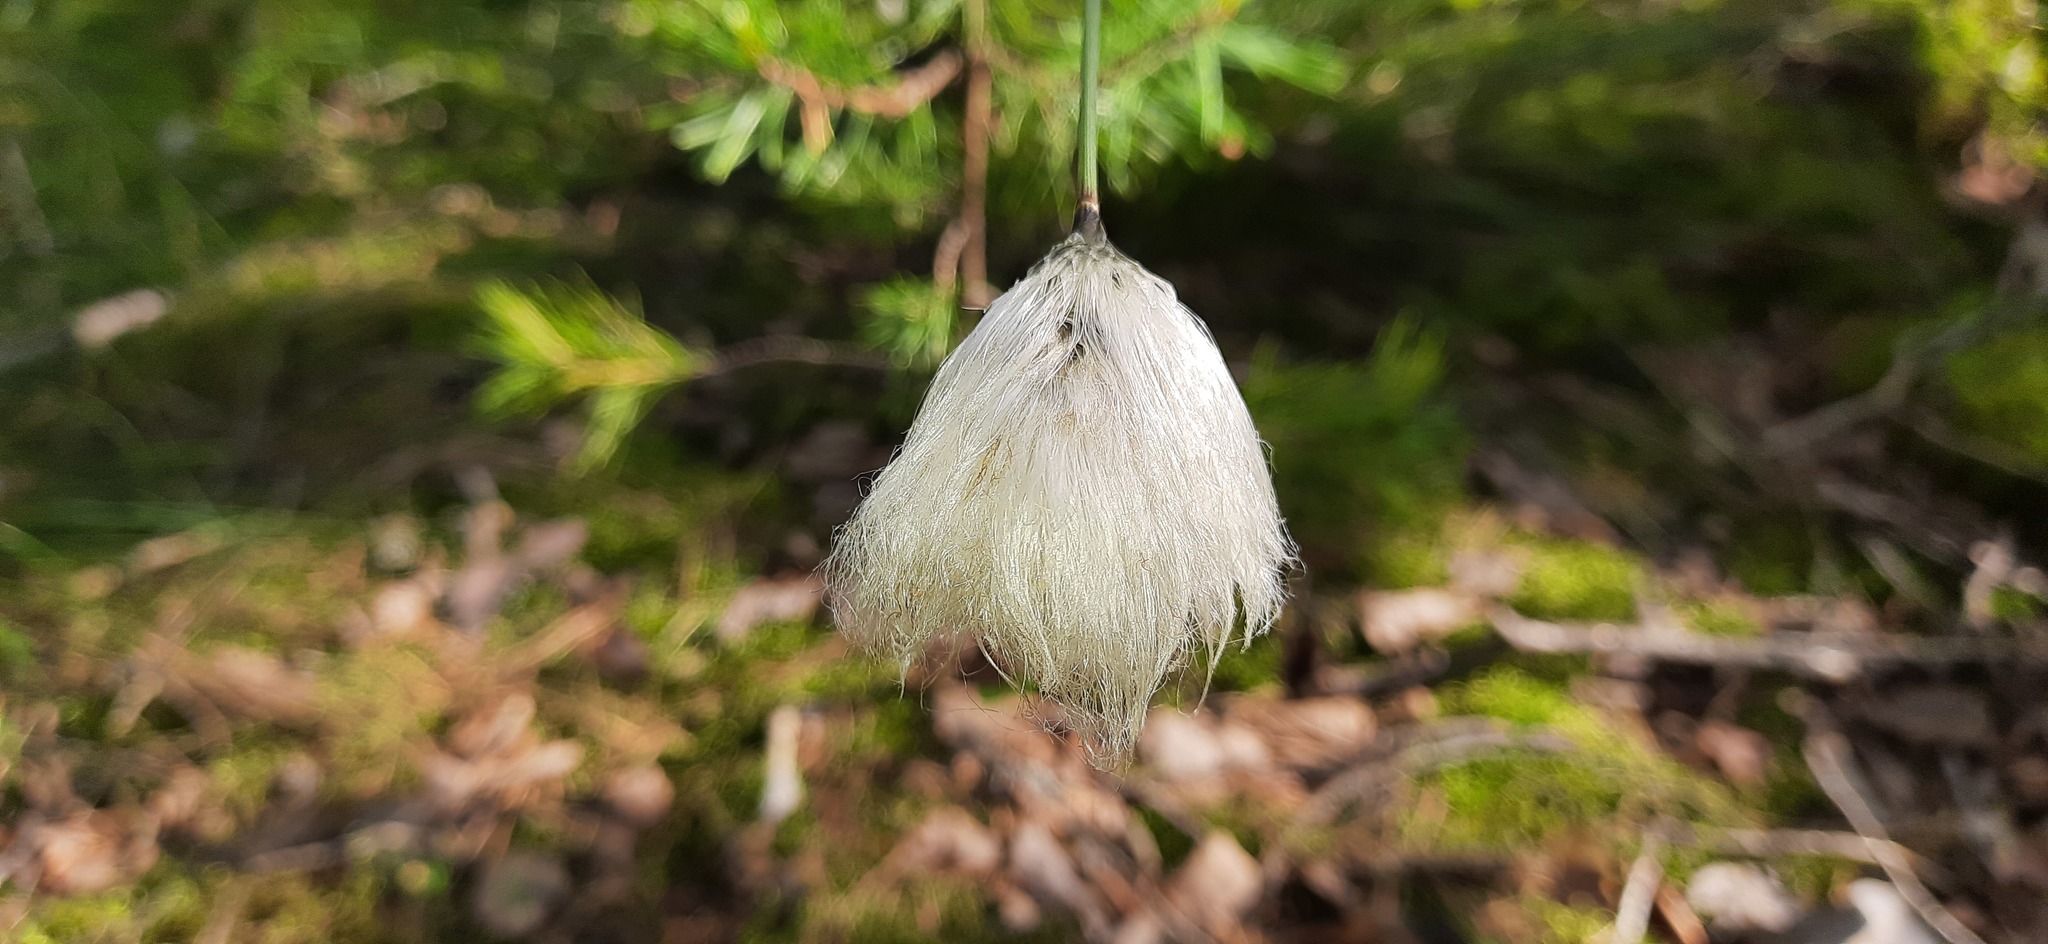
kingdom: Plantae
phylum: Tracheophyta
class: Liliopsida
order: Poales
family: Cyperaceae
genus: Eriophorum
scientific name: Eriophorum vaginatum
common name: Hare's-tail cottongrass
